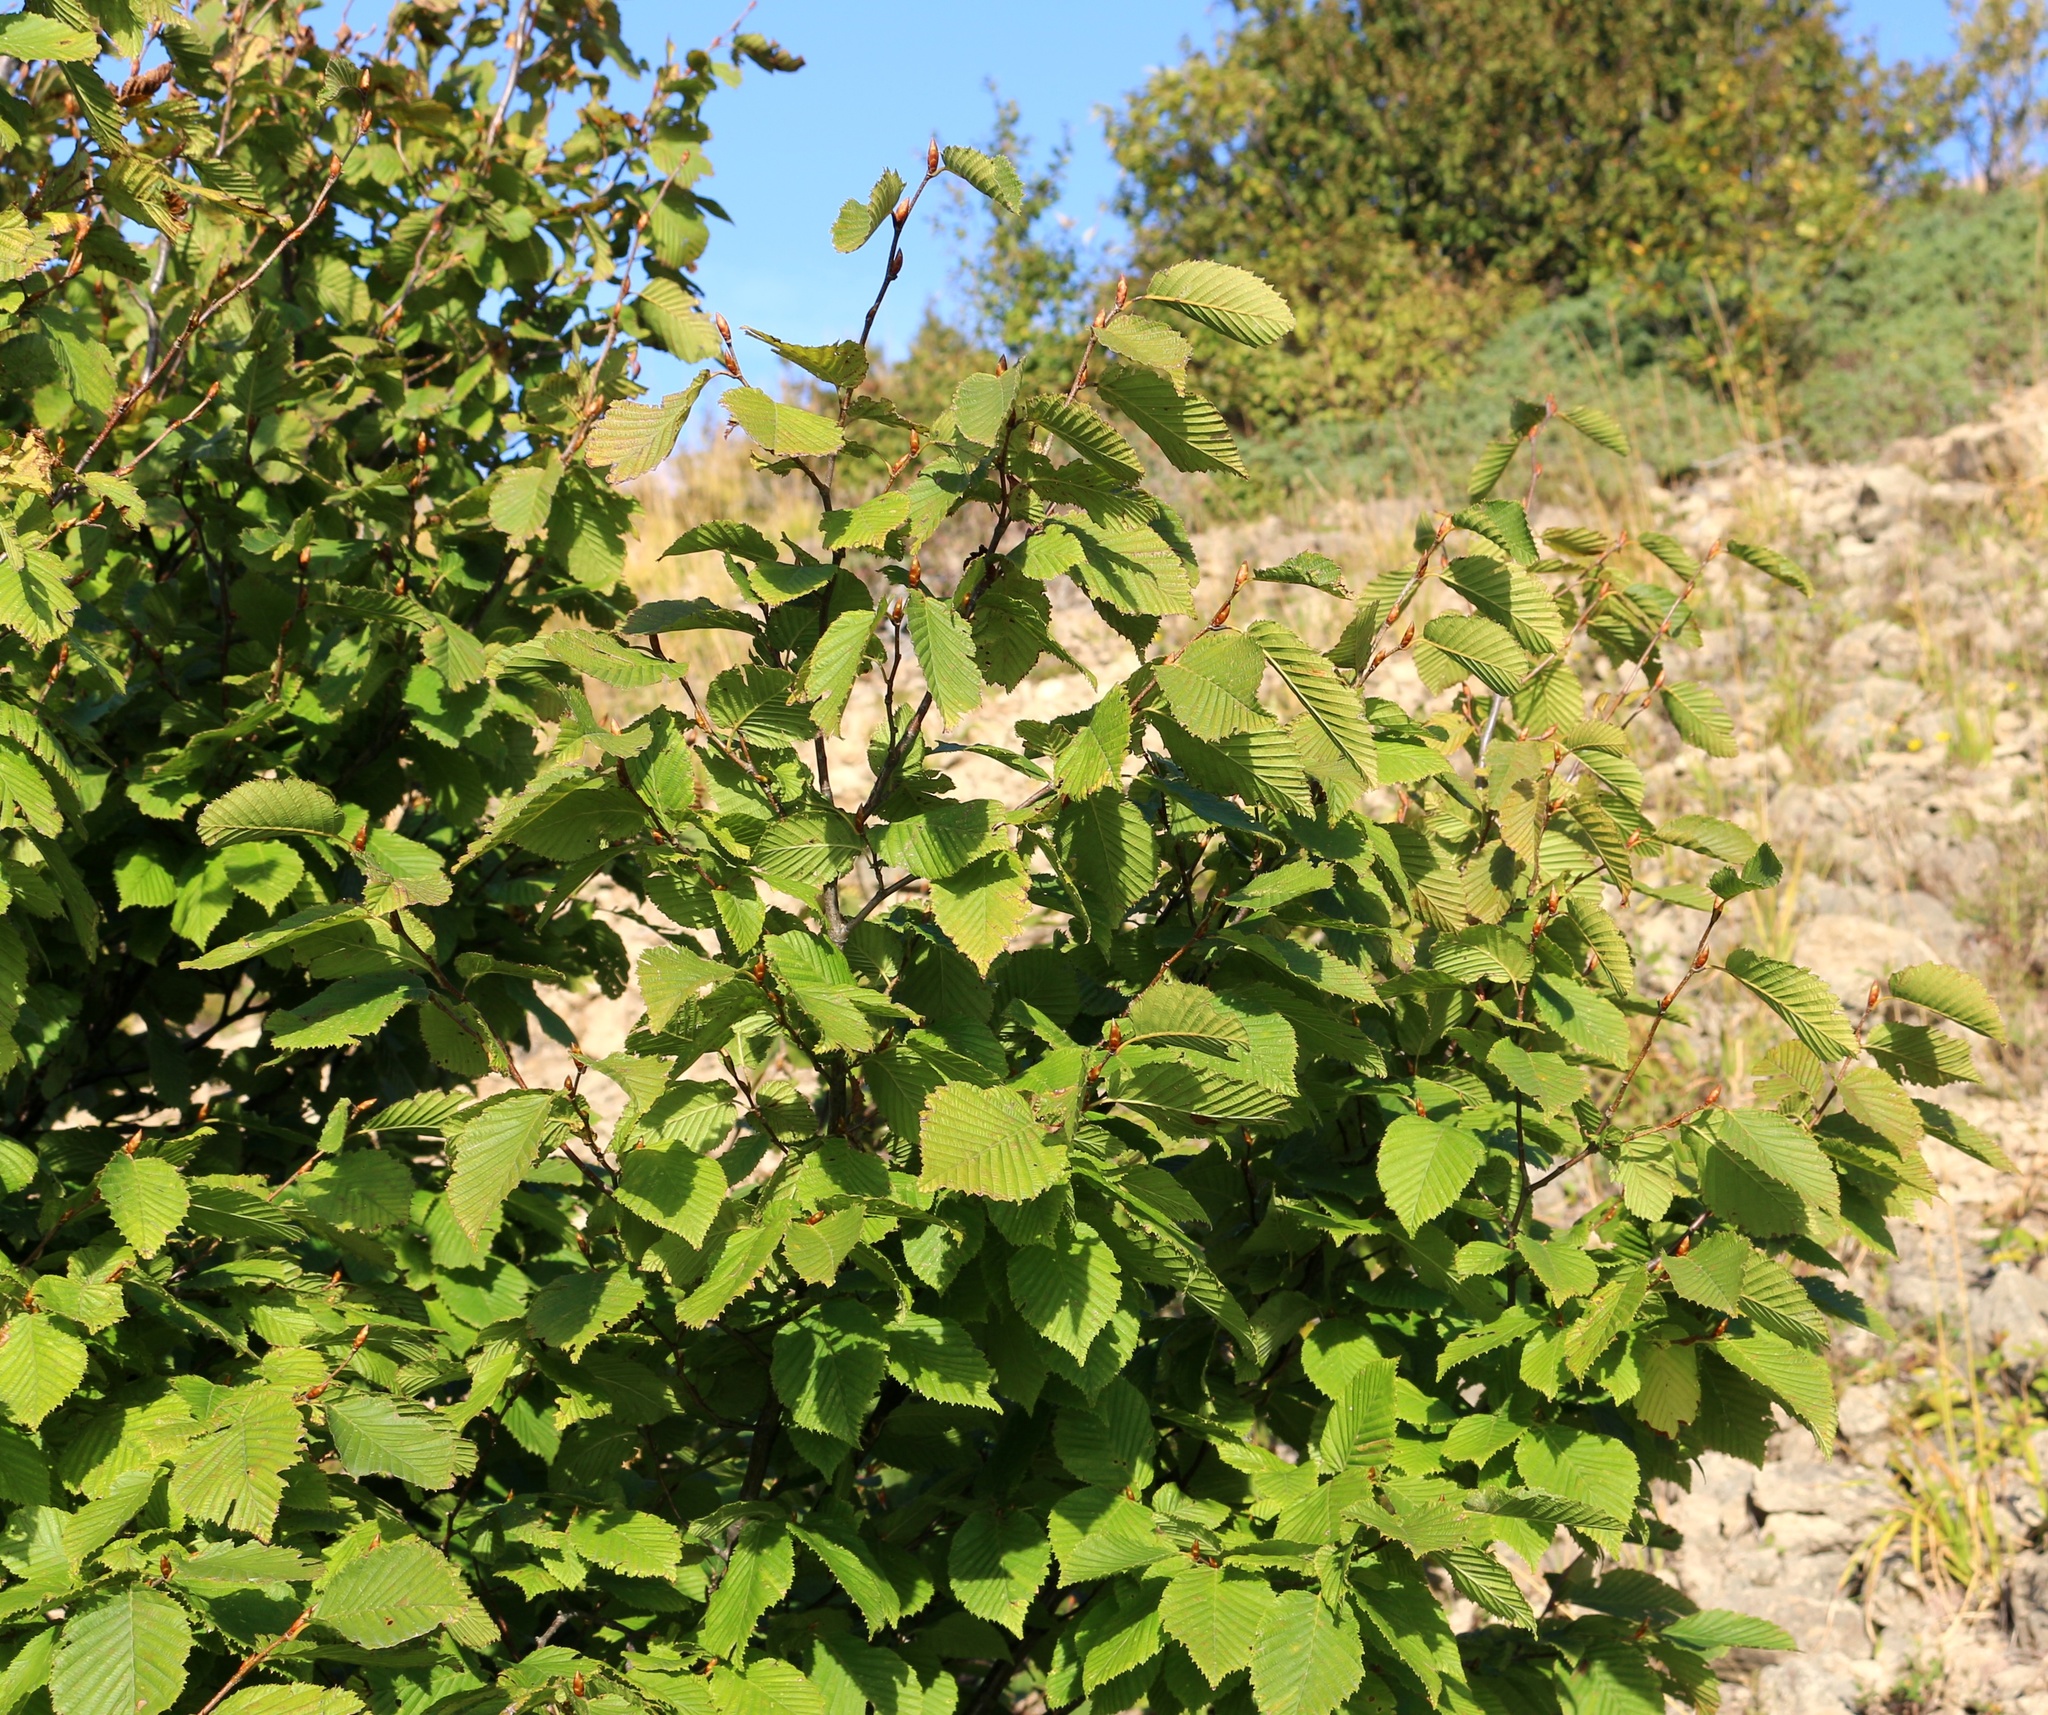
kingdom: Plantae
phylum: Tracheophyta
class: Magnoliopsida
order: Fagales
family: Betulaceae
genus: Carpinus
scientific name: Carpinus betulus
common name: Hornbeam
